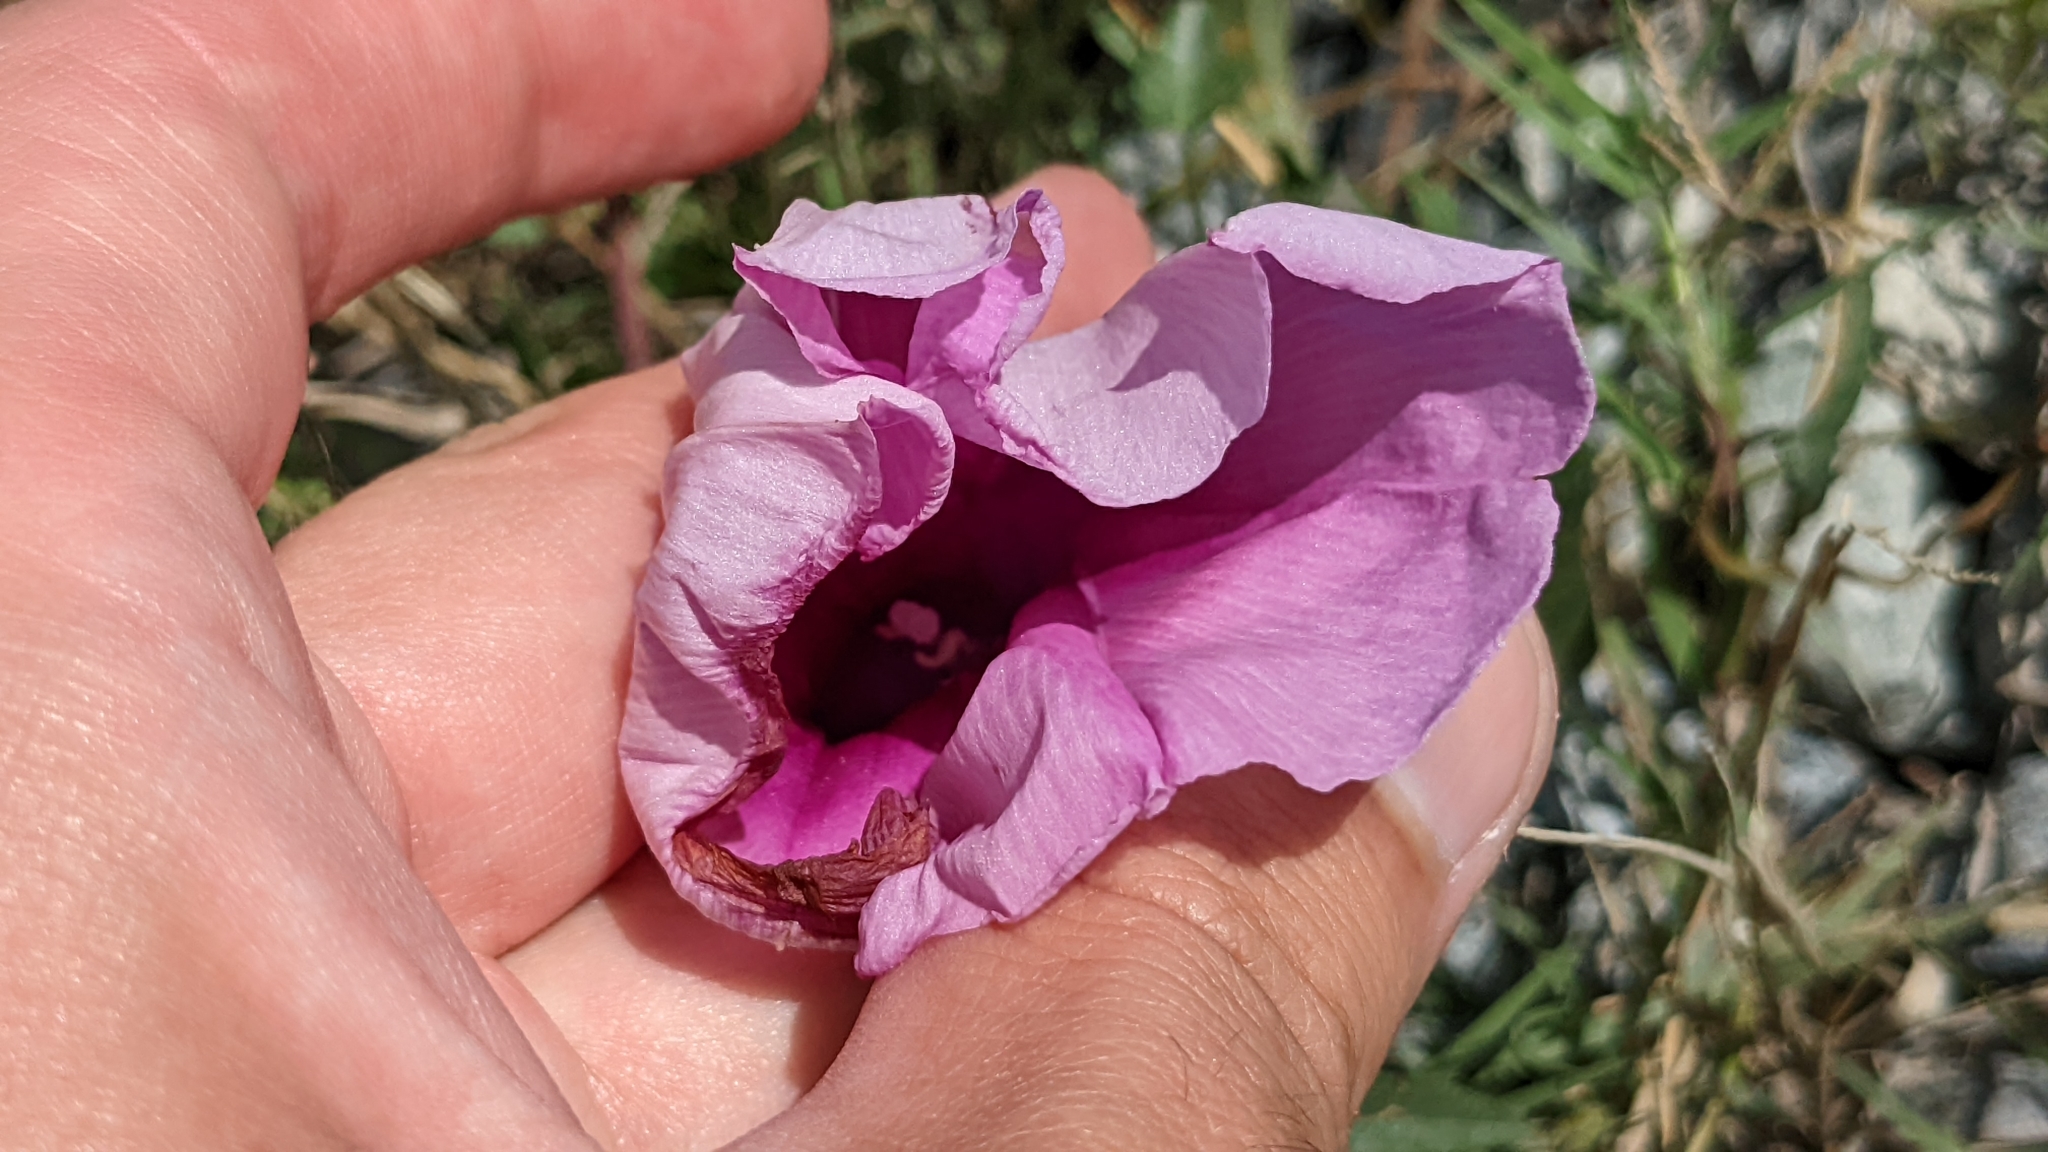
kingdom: Plantae
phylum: Tracheophyta
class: Magnoliopsida
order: Solanales
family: Convolvulaceae
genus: Ipomoea
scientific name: Ipomoea sagittata
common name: Saltmarsh morning glory
